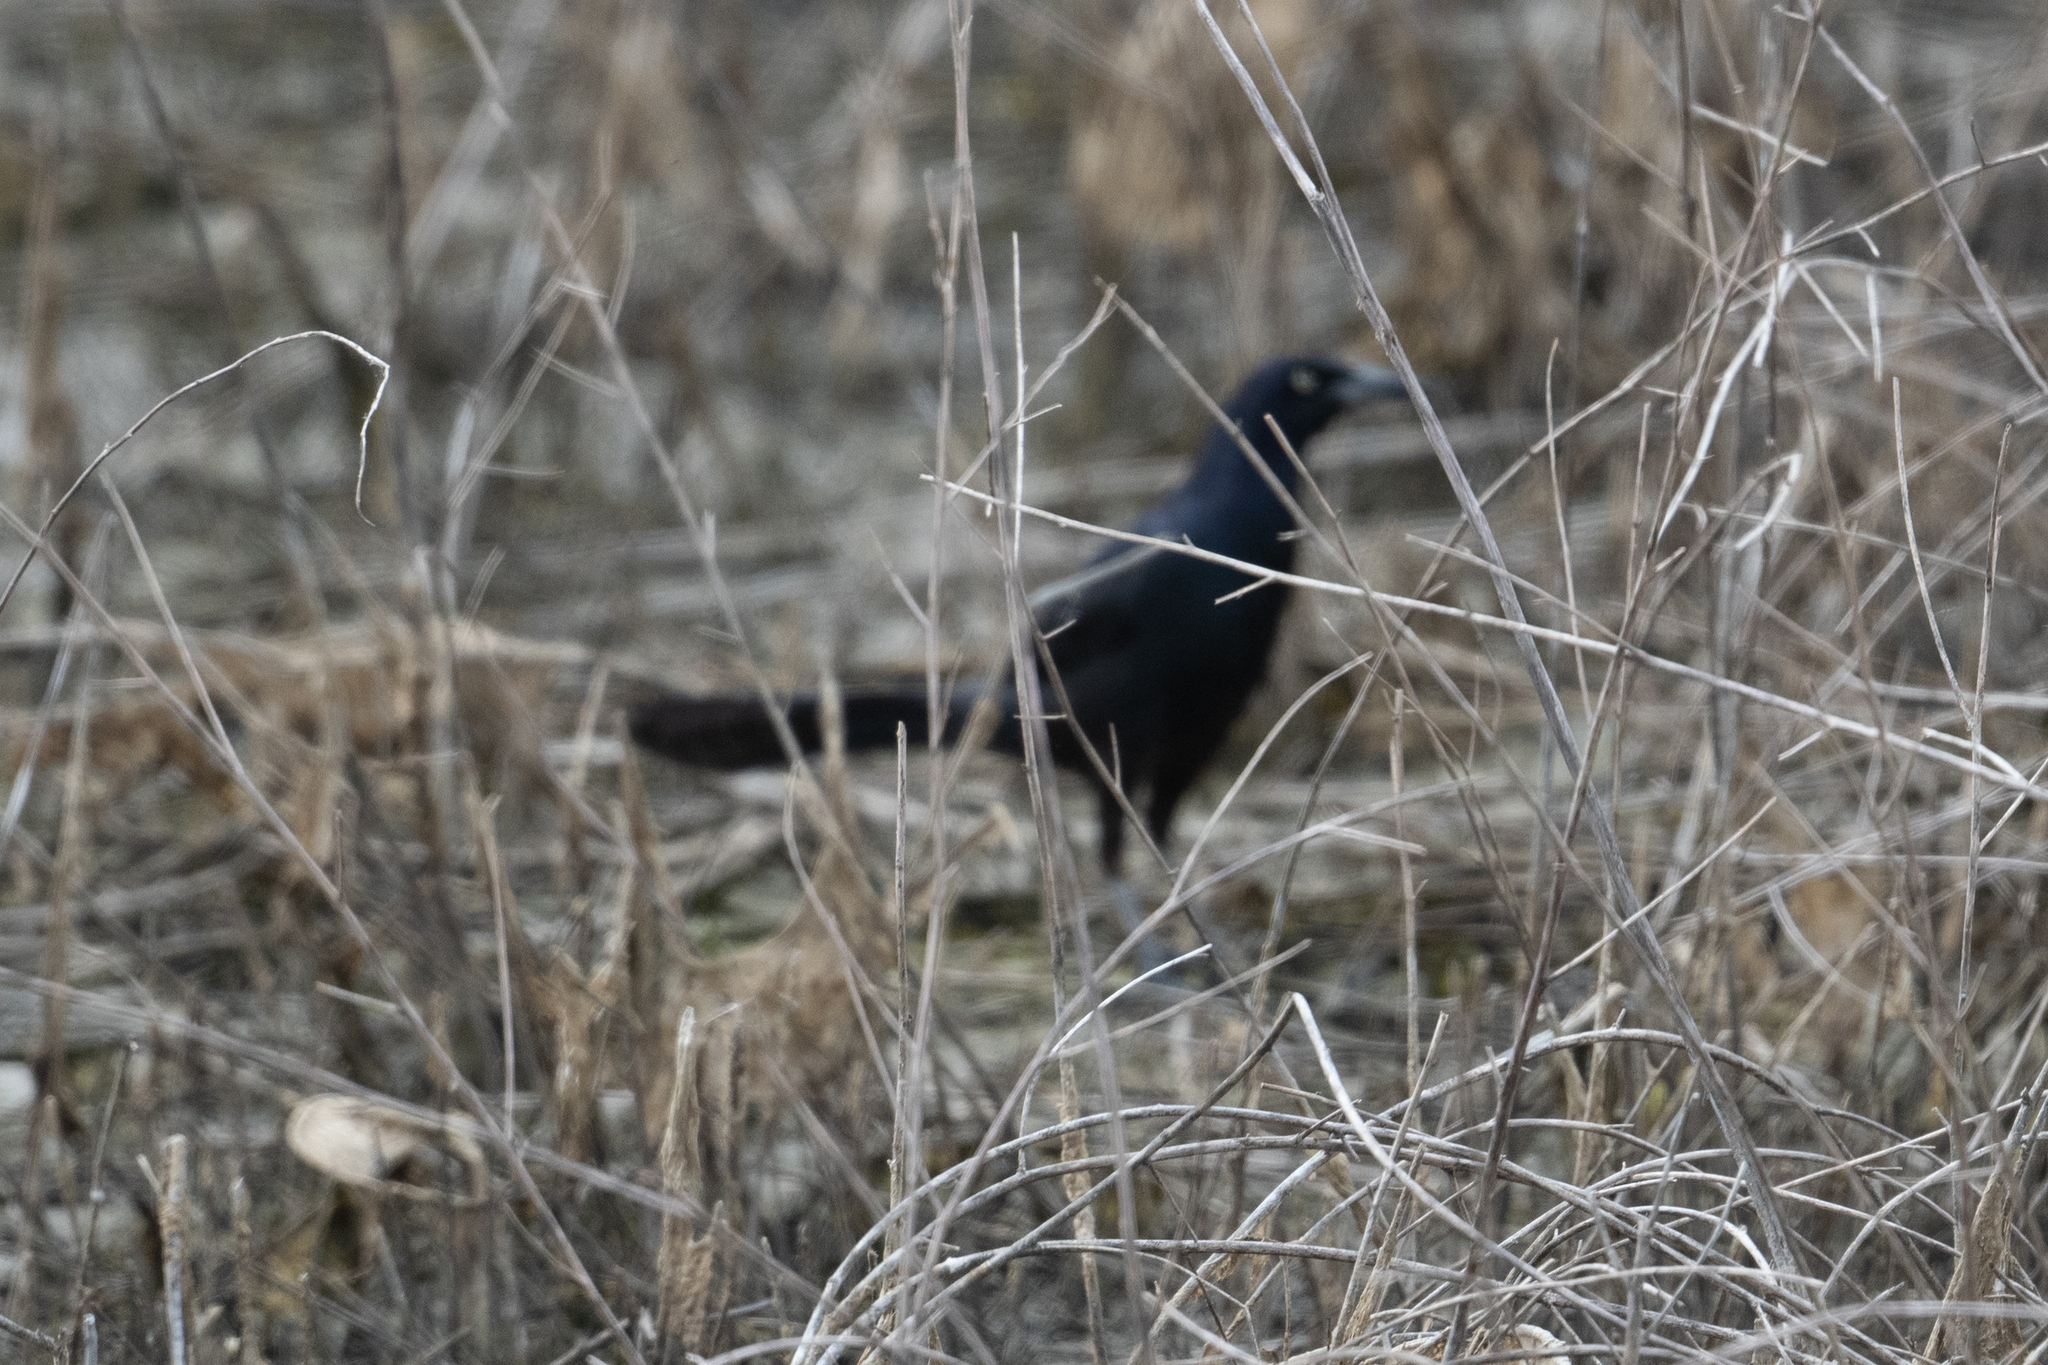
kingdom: Animalia
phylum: Chordata
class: Aves
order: Passeriformes
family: Icteridae
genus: Quiscalus
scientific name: Quiscalus mexicanus
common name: Great-tailed grackle
